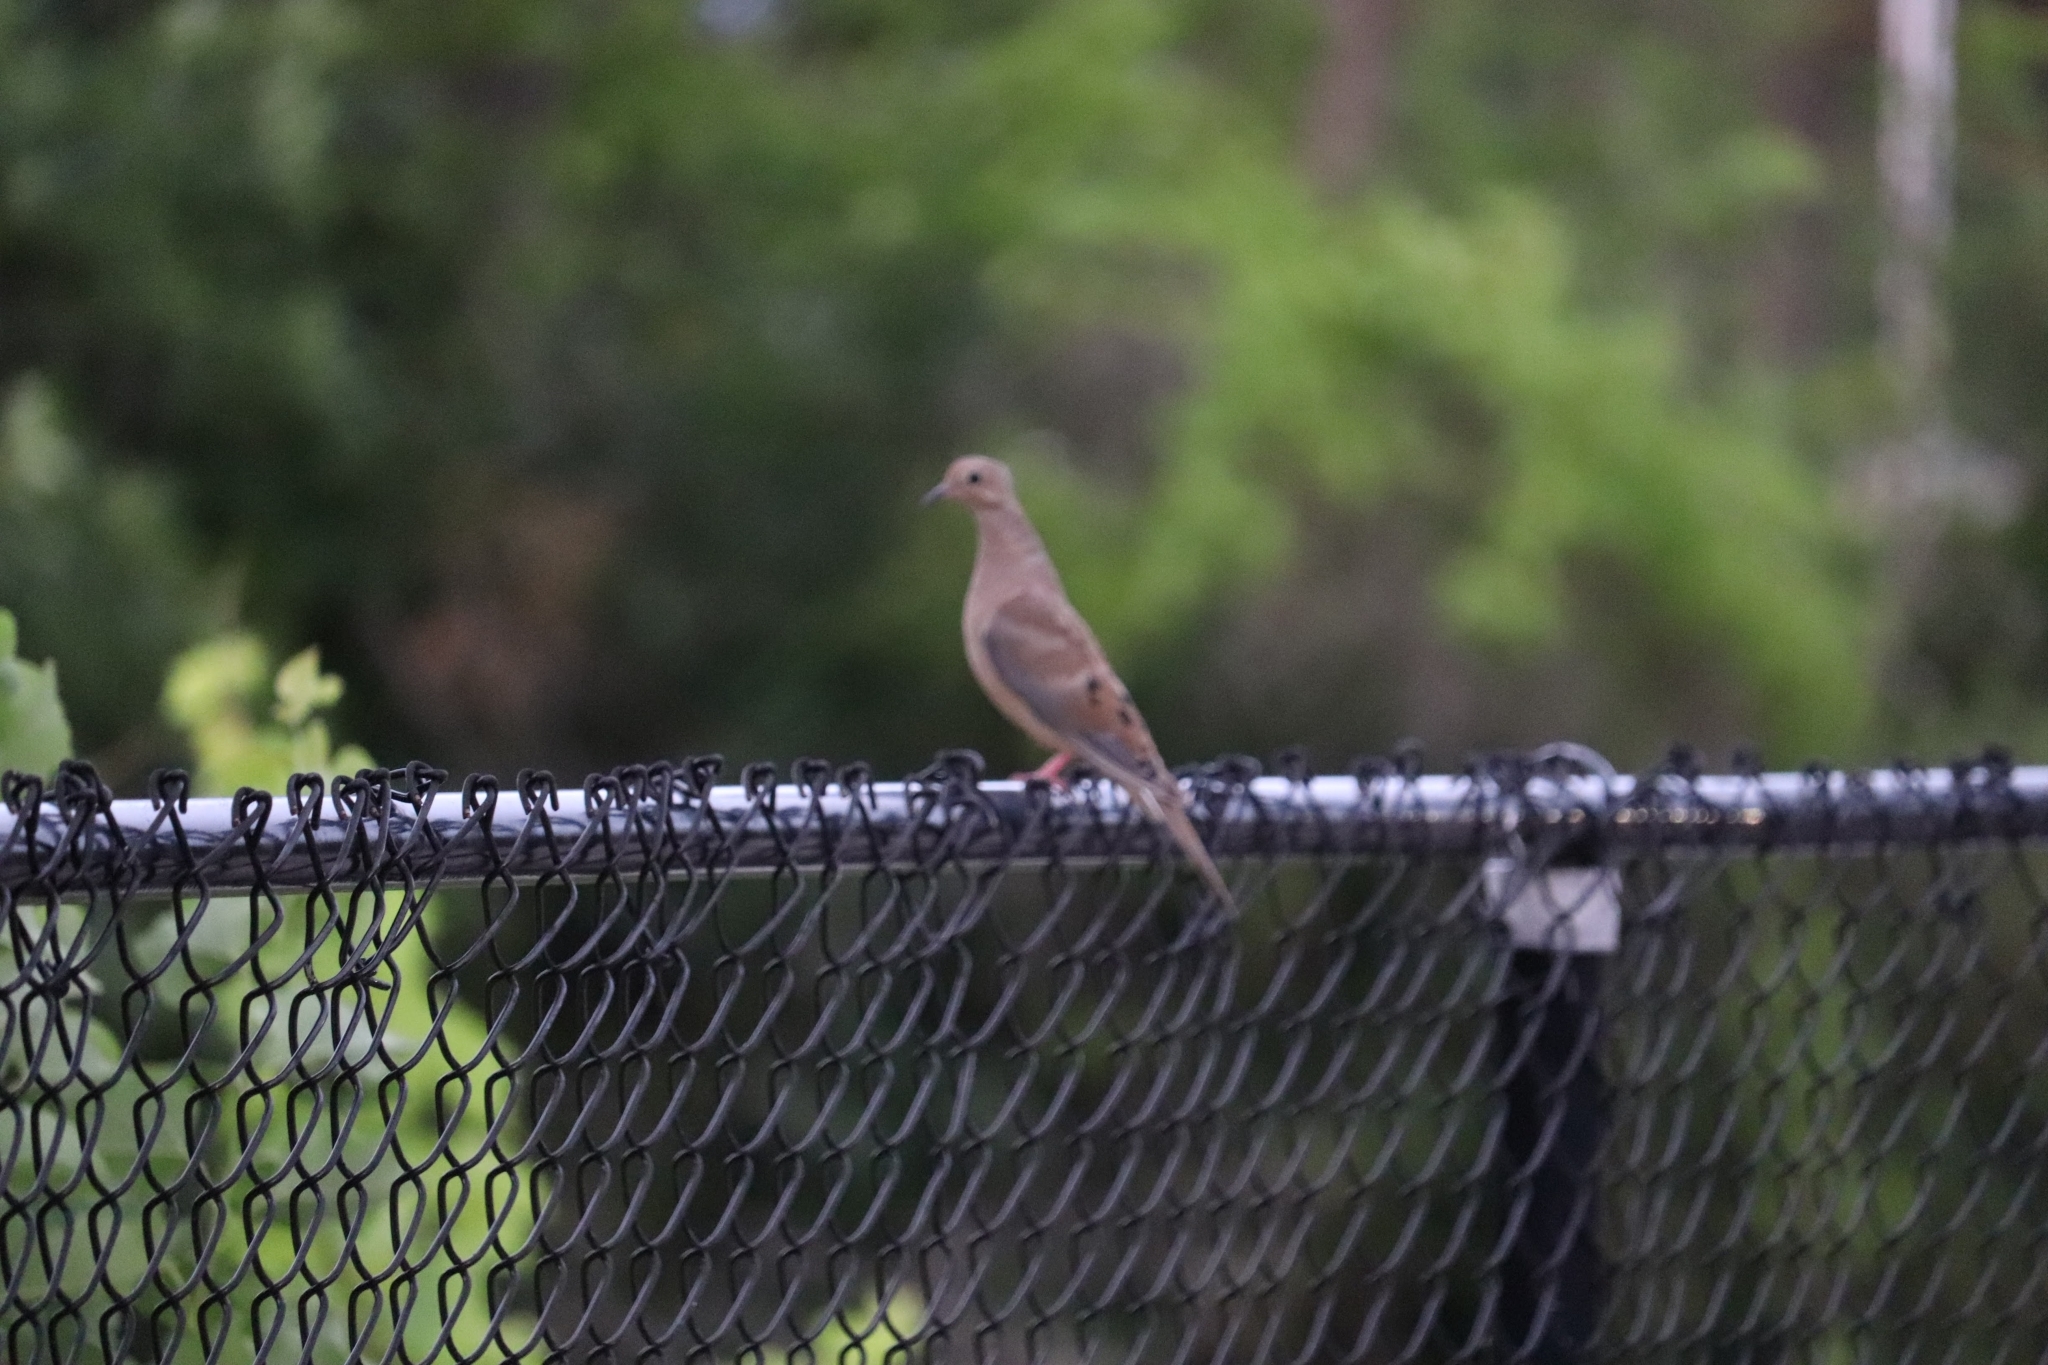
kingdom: Animalia
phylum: Chordata
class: Aves
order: Columbiformes
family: Columbidae
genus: Zenaida
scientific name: Zenaida macroura
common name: Mourning dove
